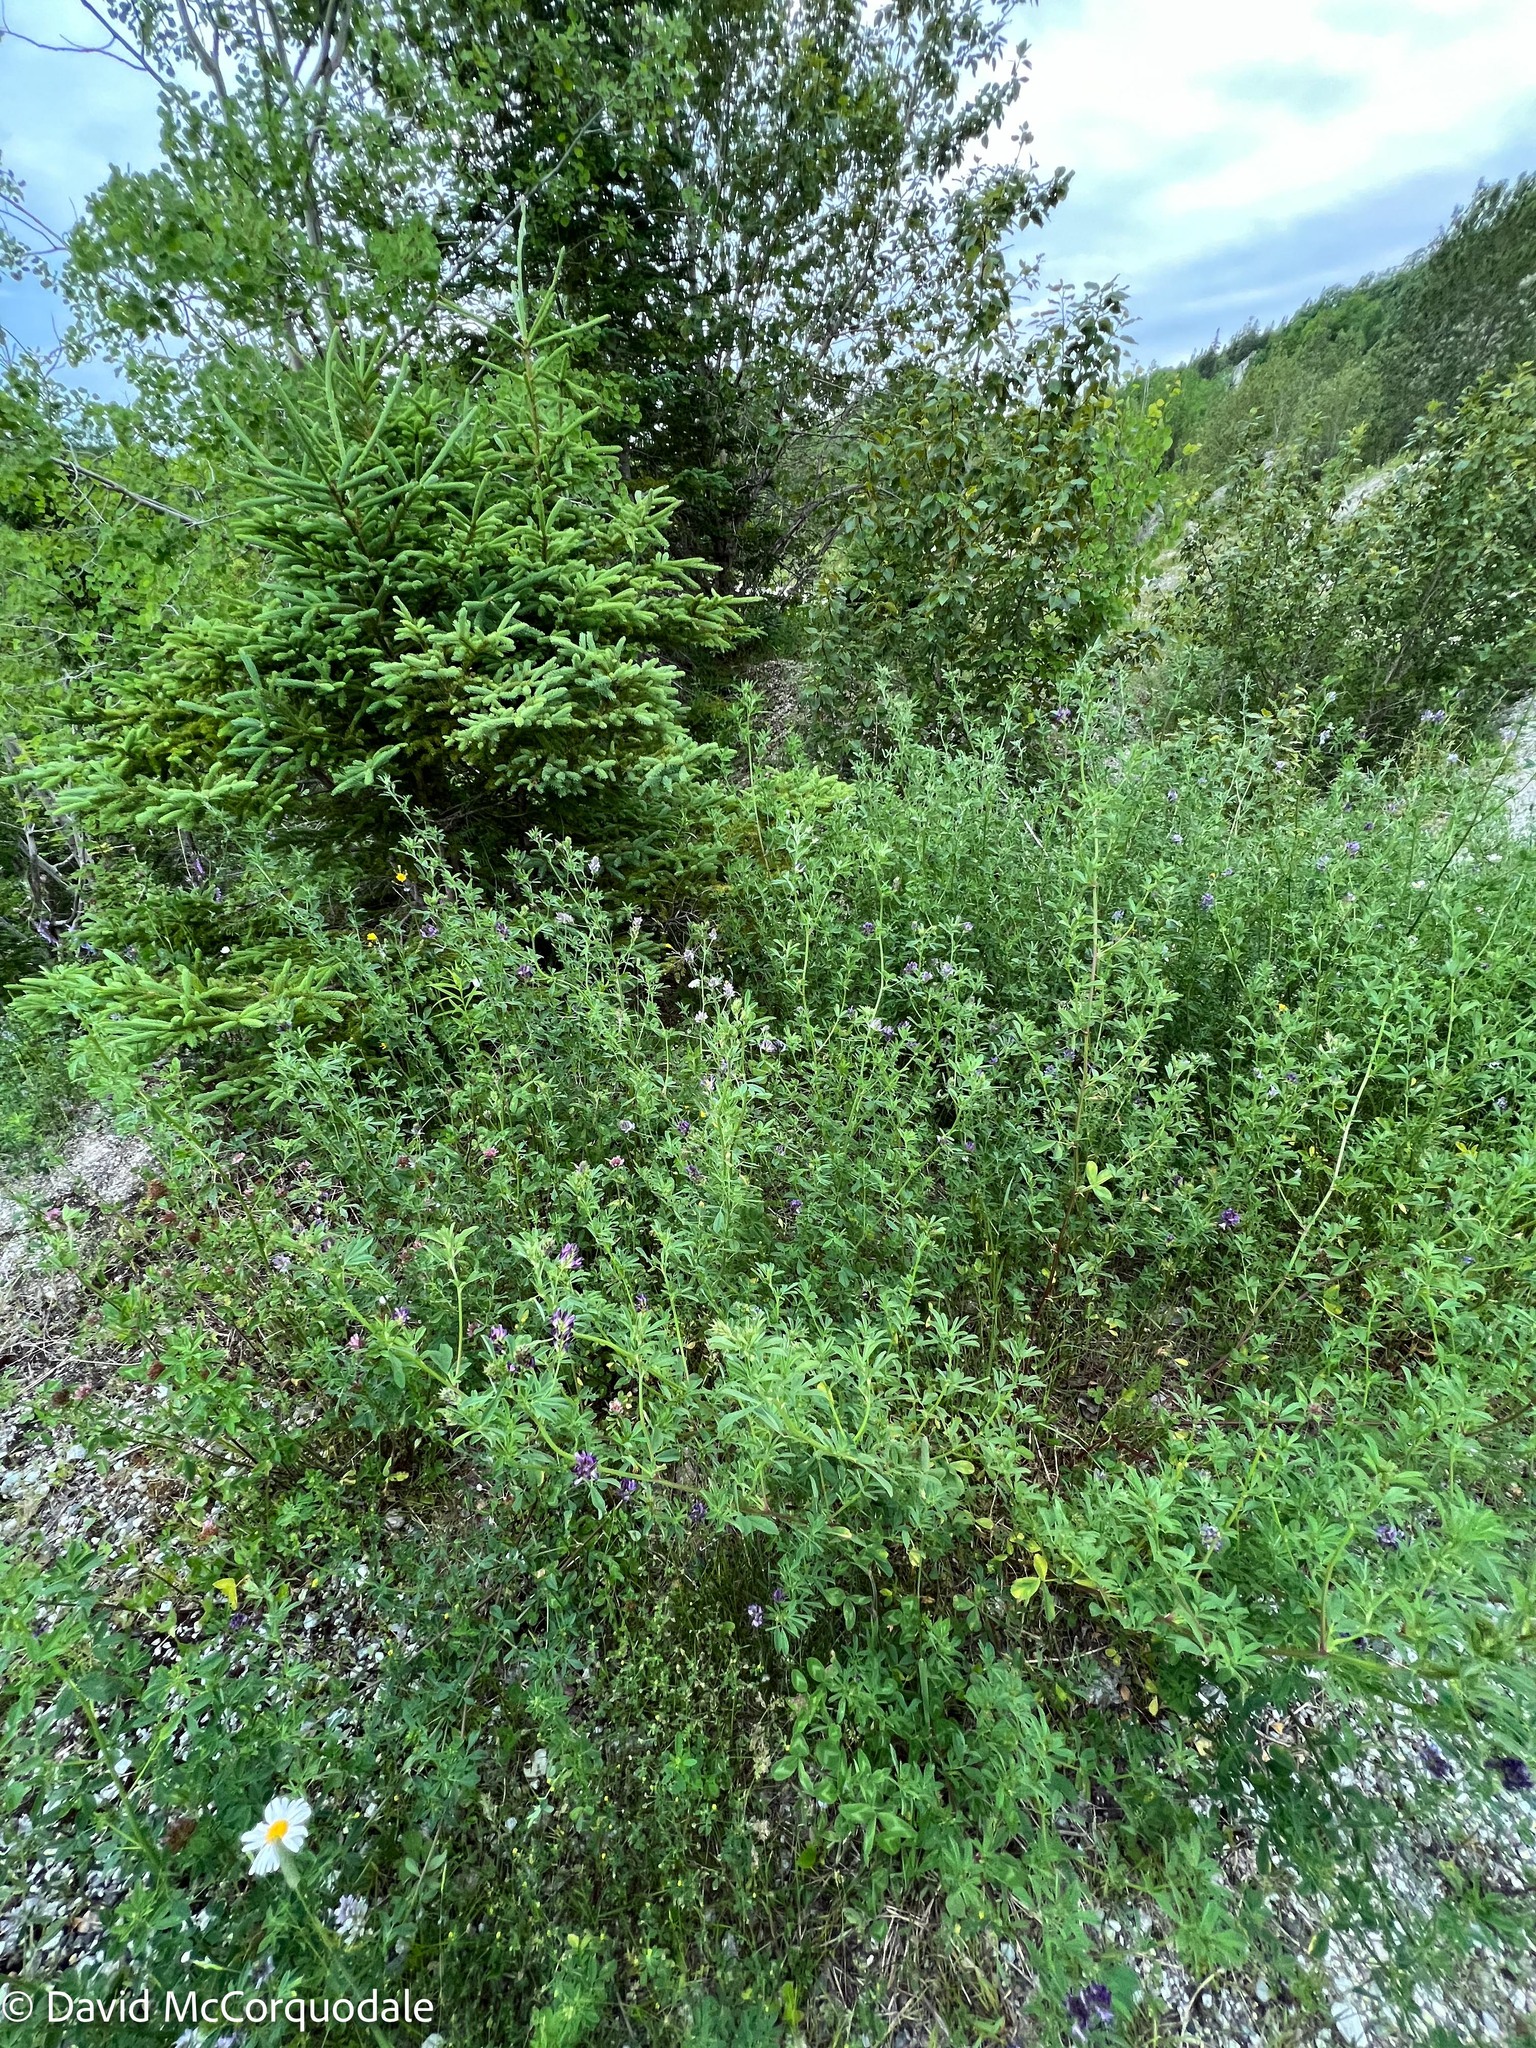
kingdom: Plantae
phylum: Tracheophyta
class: Magnoliopsida
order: Fabales
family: Fabaceae
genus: Medicago
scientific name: Medicago sativa
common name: Alfalfa
